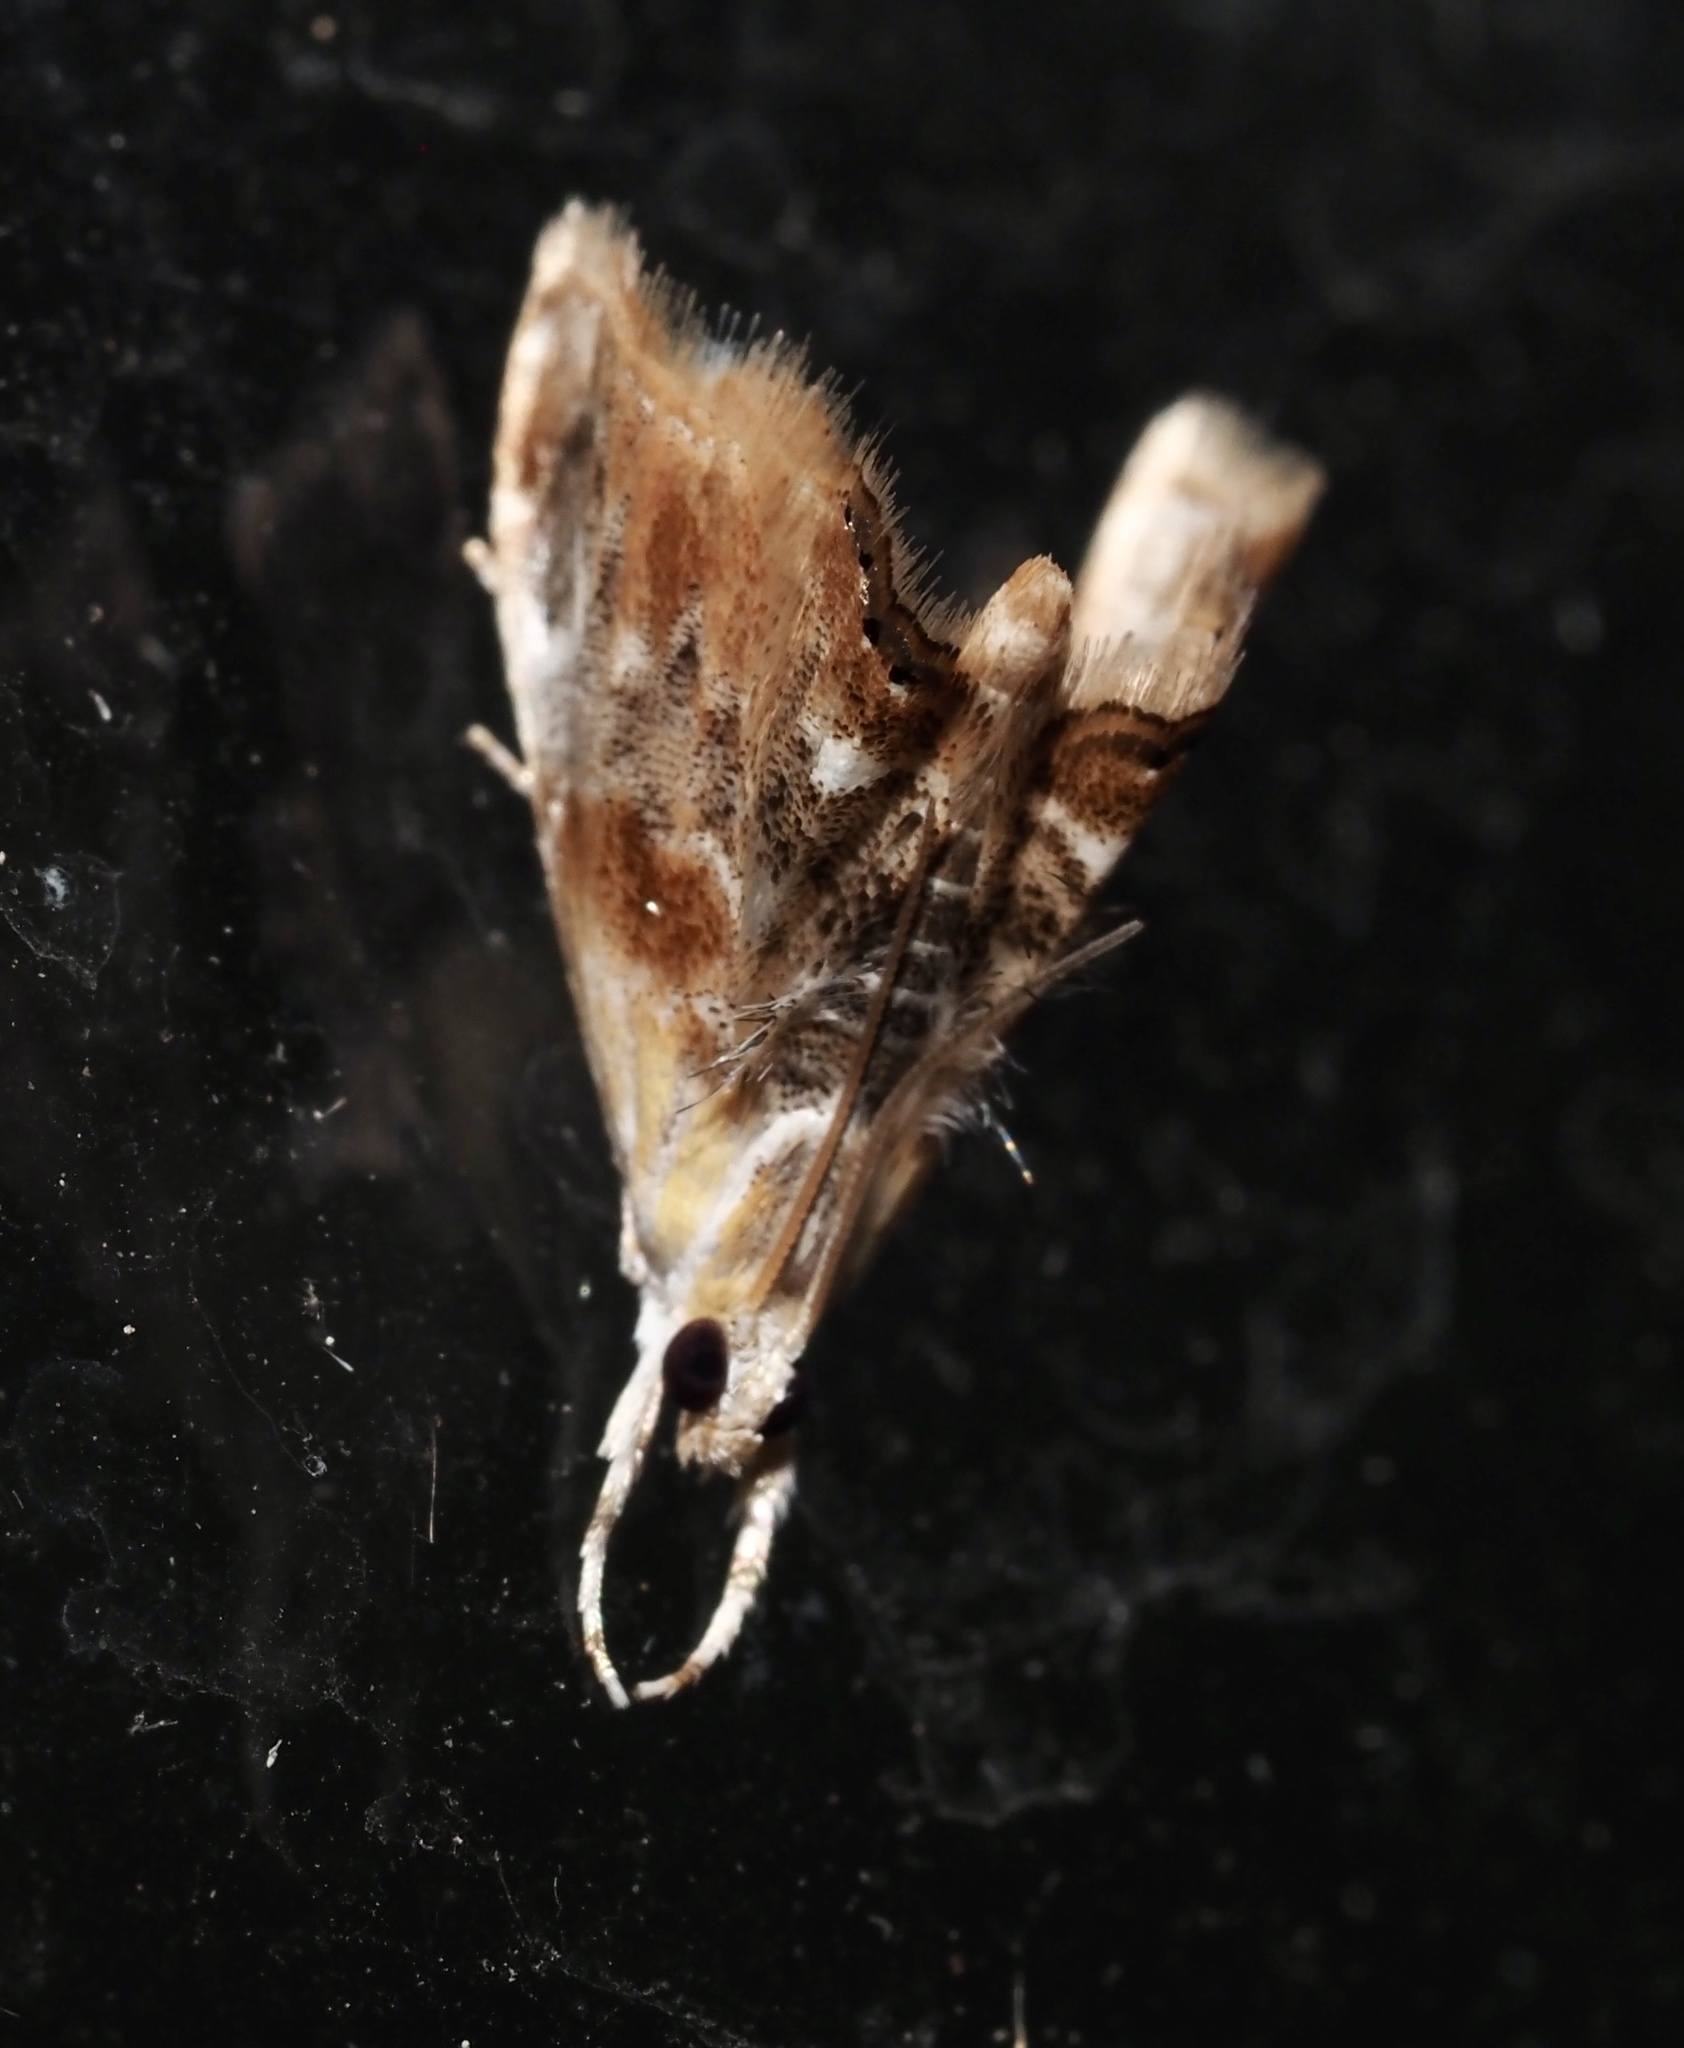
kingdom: Animalia
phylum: Arthropoda
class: Insecta
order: Lepidoptera
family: Crambidae
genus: Dicymolomia
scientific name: Dicymolomia julianalis
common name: Julia's dicymolomia moth
